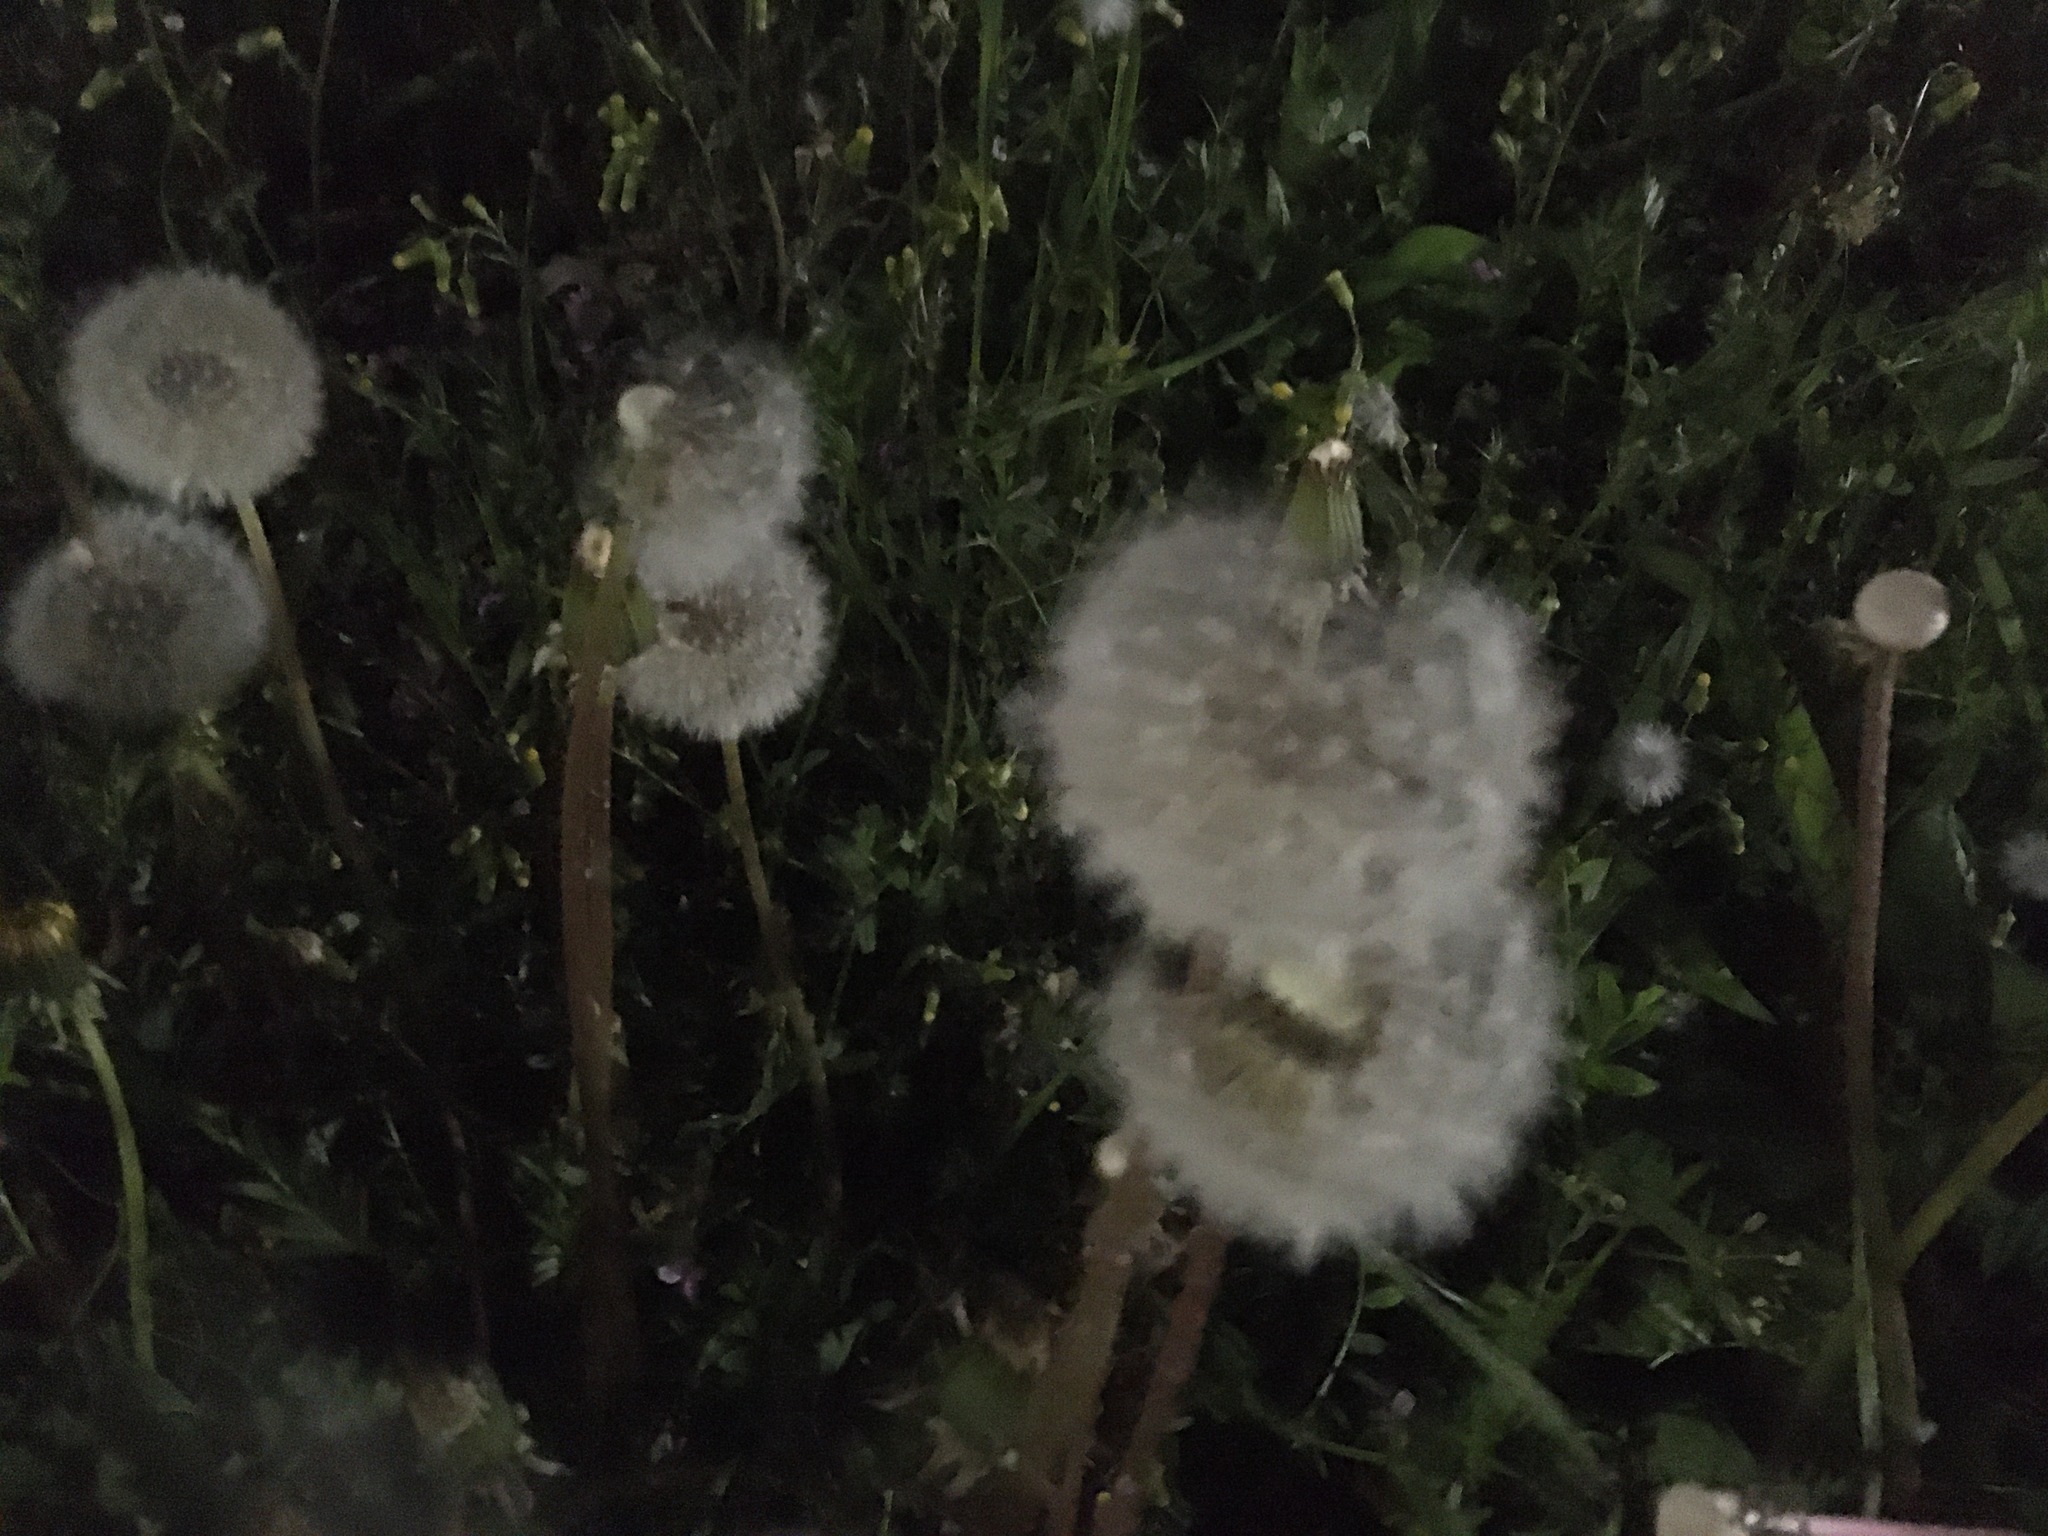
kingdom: Plantae
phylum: Tracheophyta
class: Magnoliopsida
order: Asterales
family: Asteraceae
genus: Taraxacum
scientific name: Taraxacum officinale
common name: Common dandelion
